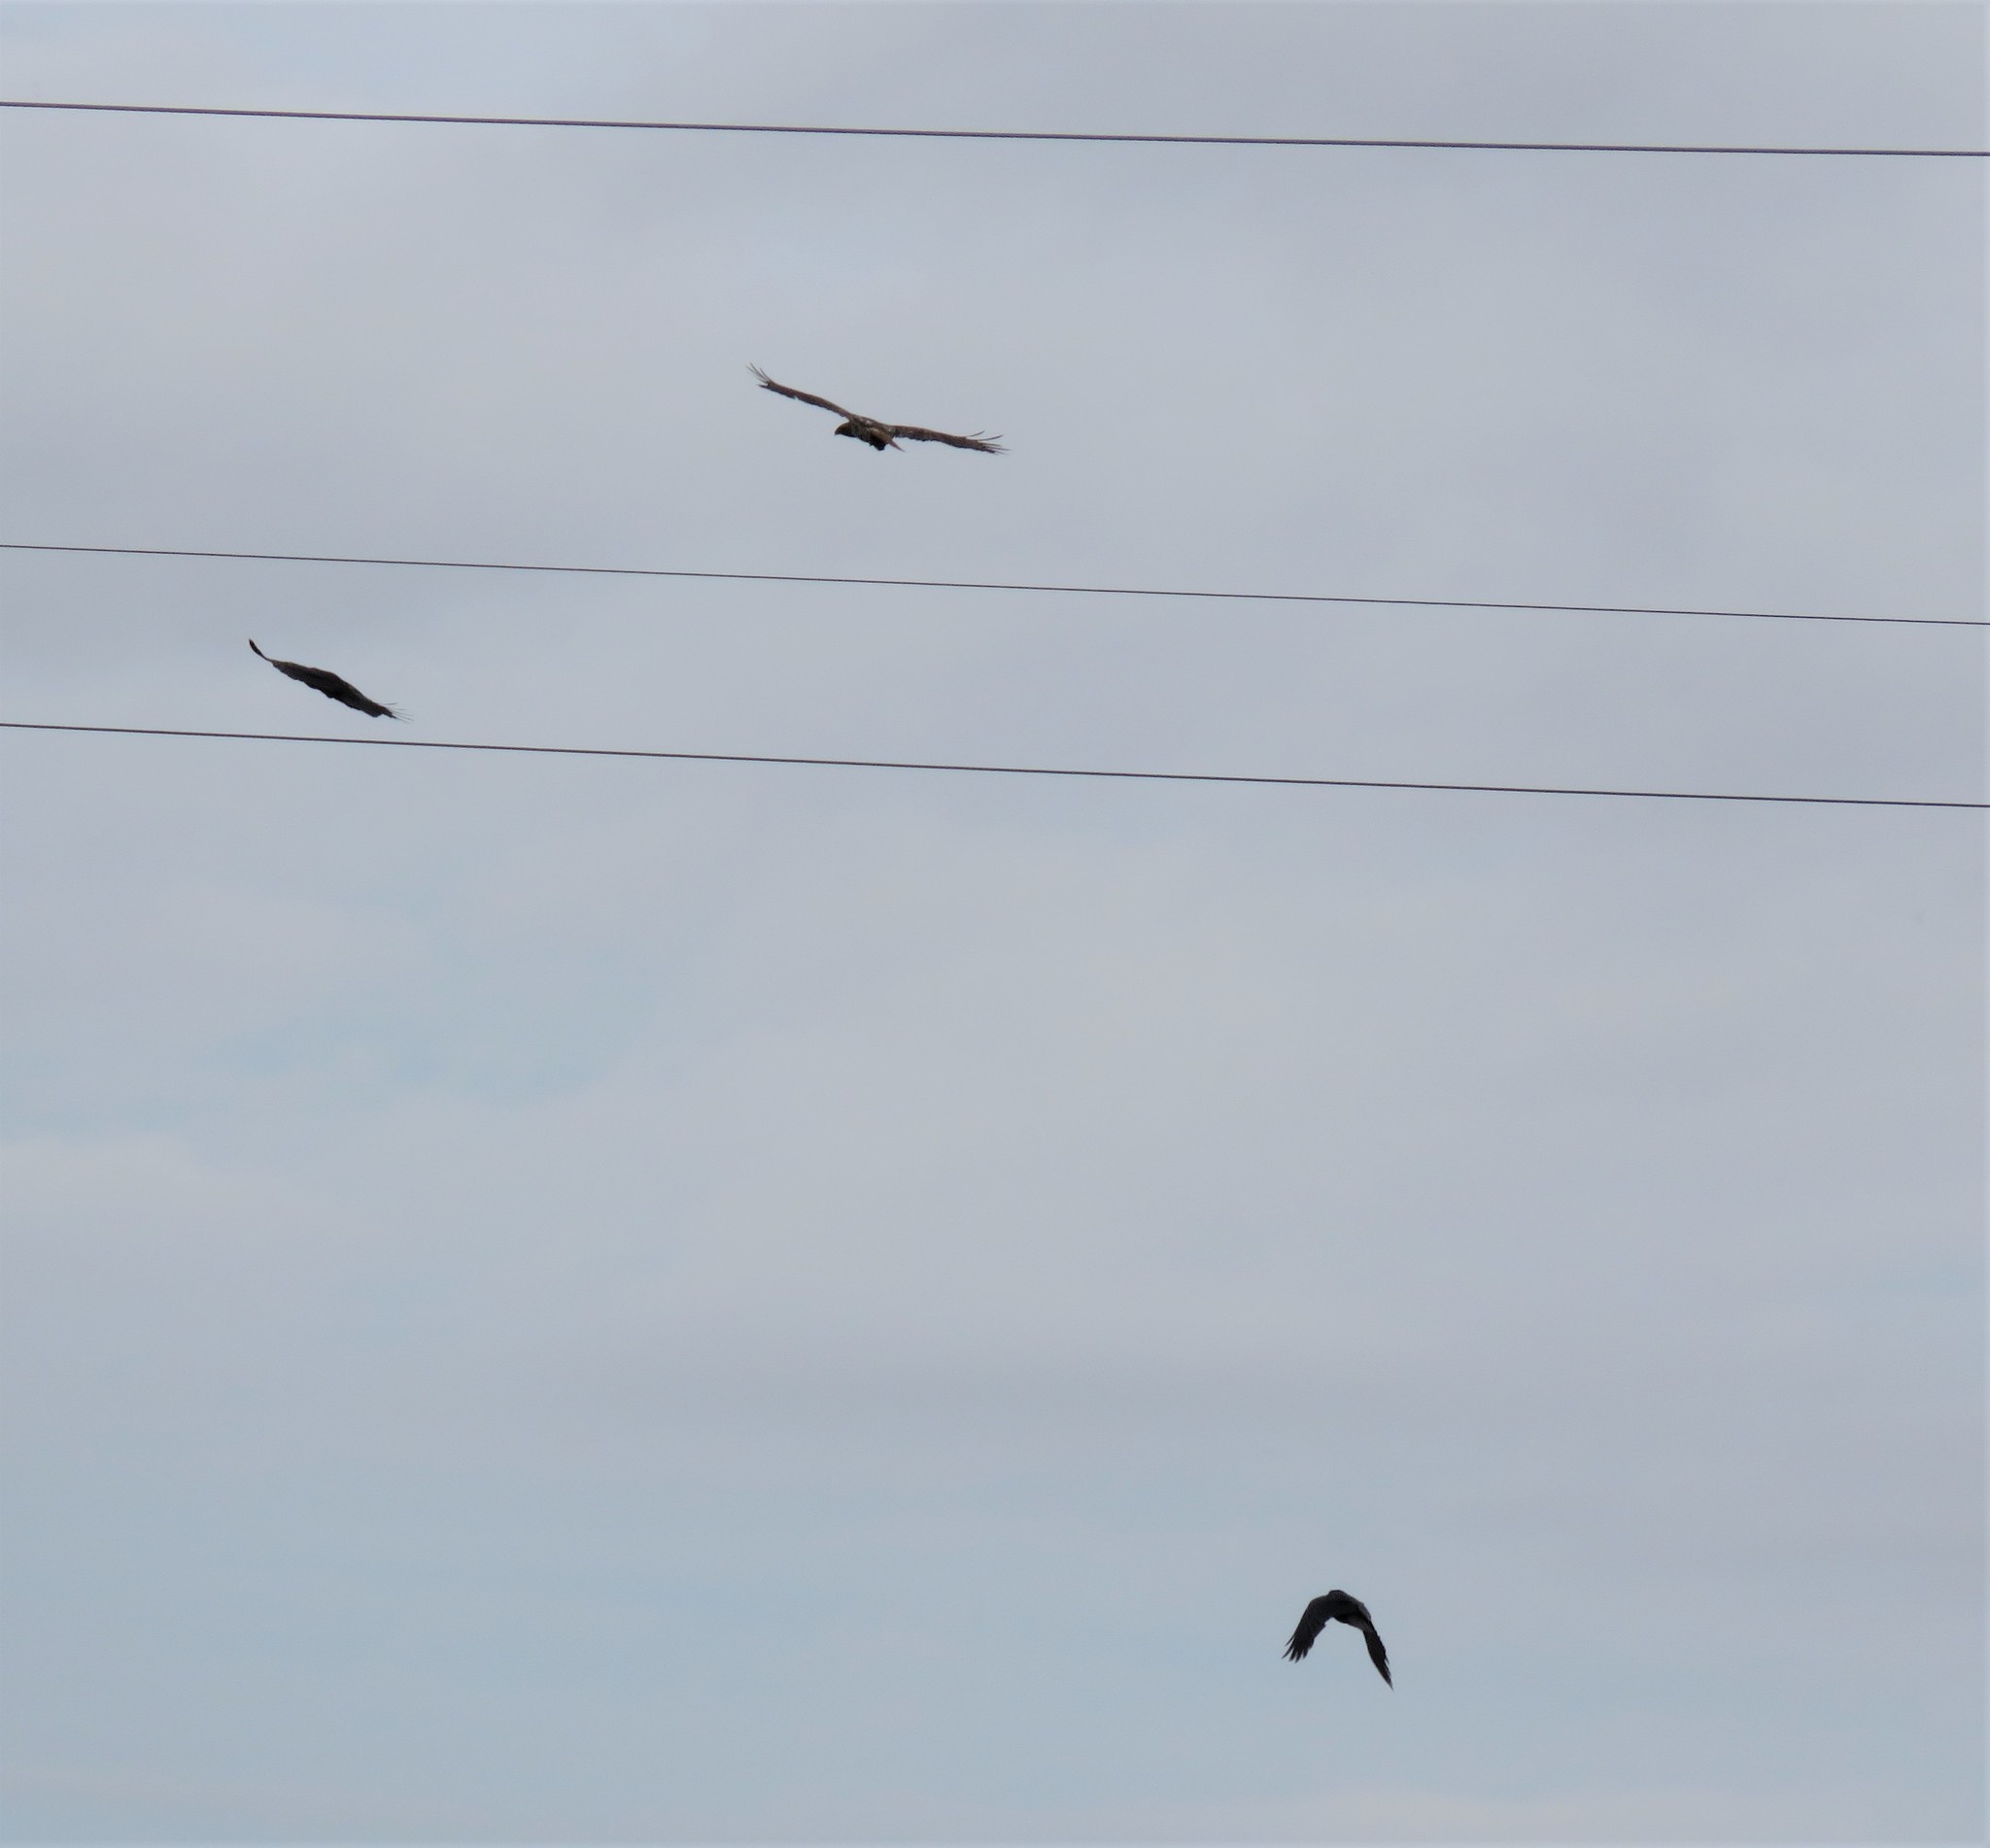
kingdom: Animalia
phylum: Chordata
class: Aves
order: Accipitriformes
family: Accipitridae
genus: Buteo
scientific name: Buteo jamaicensis
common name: Red-tailed hawk
